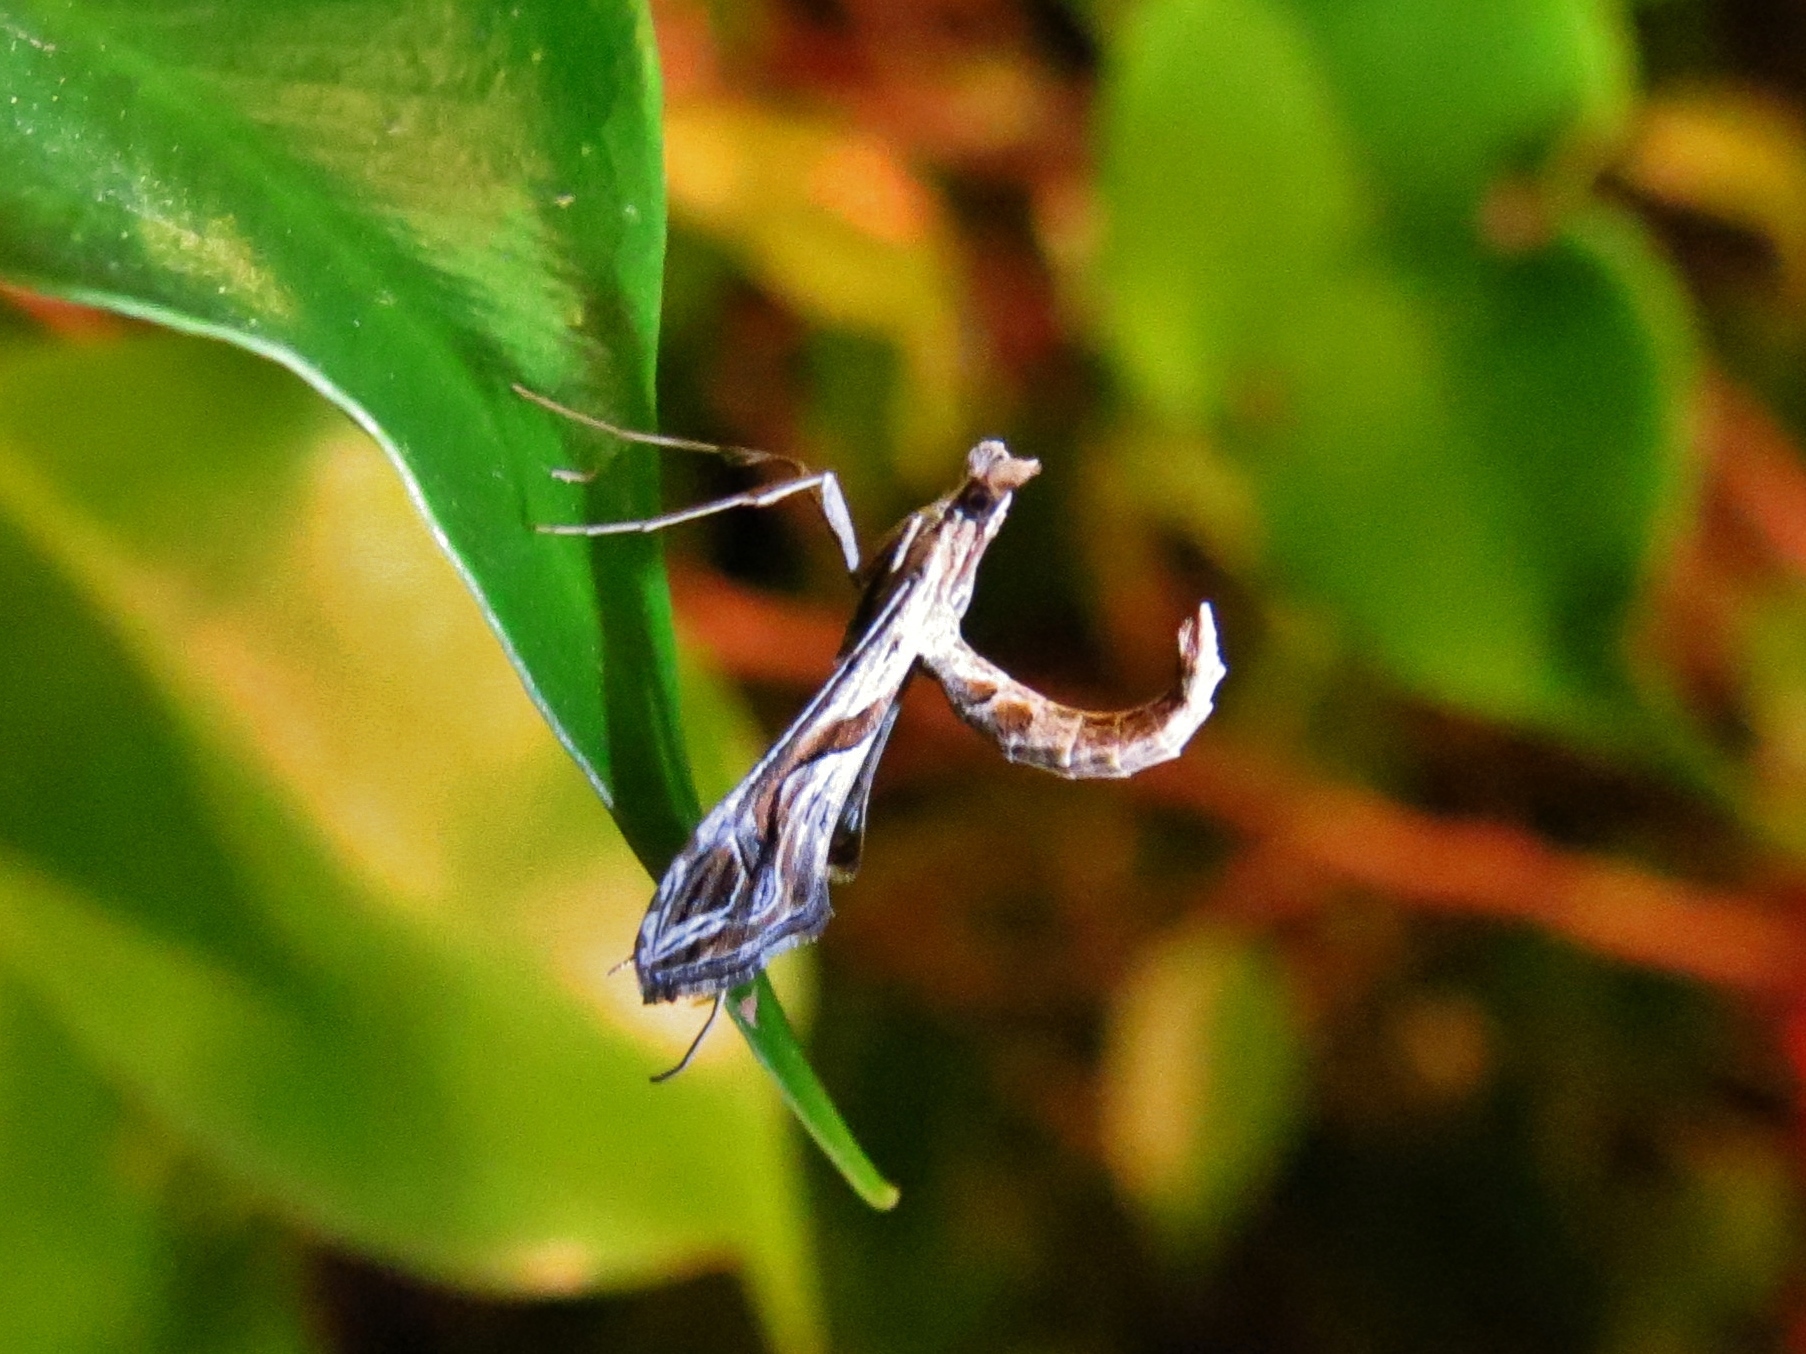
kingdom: Animalia
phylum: Arthropoda
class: Insecta
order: Lepidoptera
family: Crambidae
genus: Lineodes
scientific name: Lineodes integra
